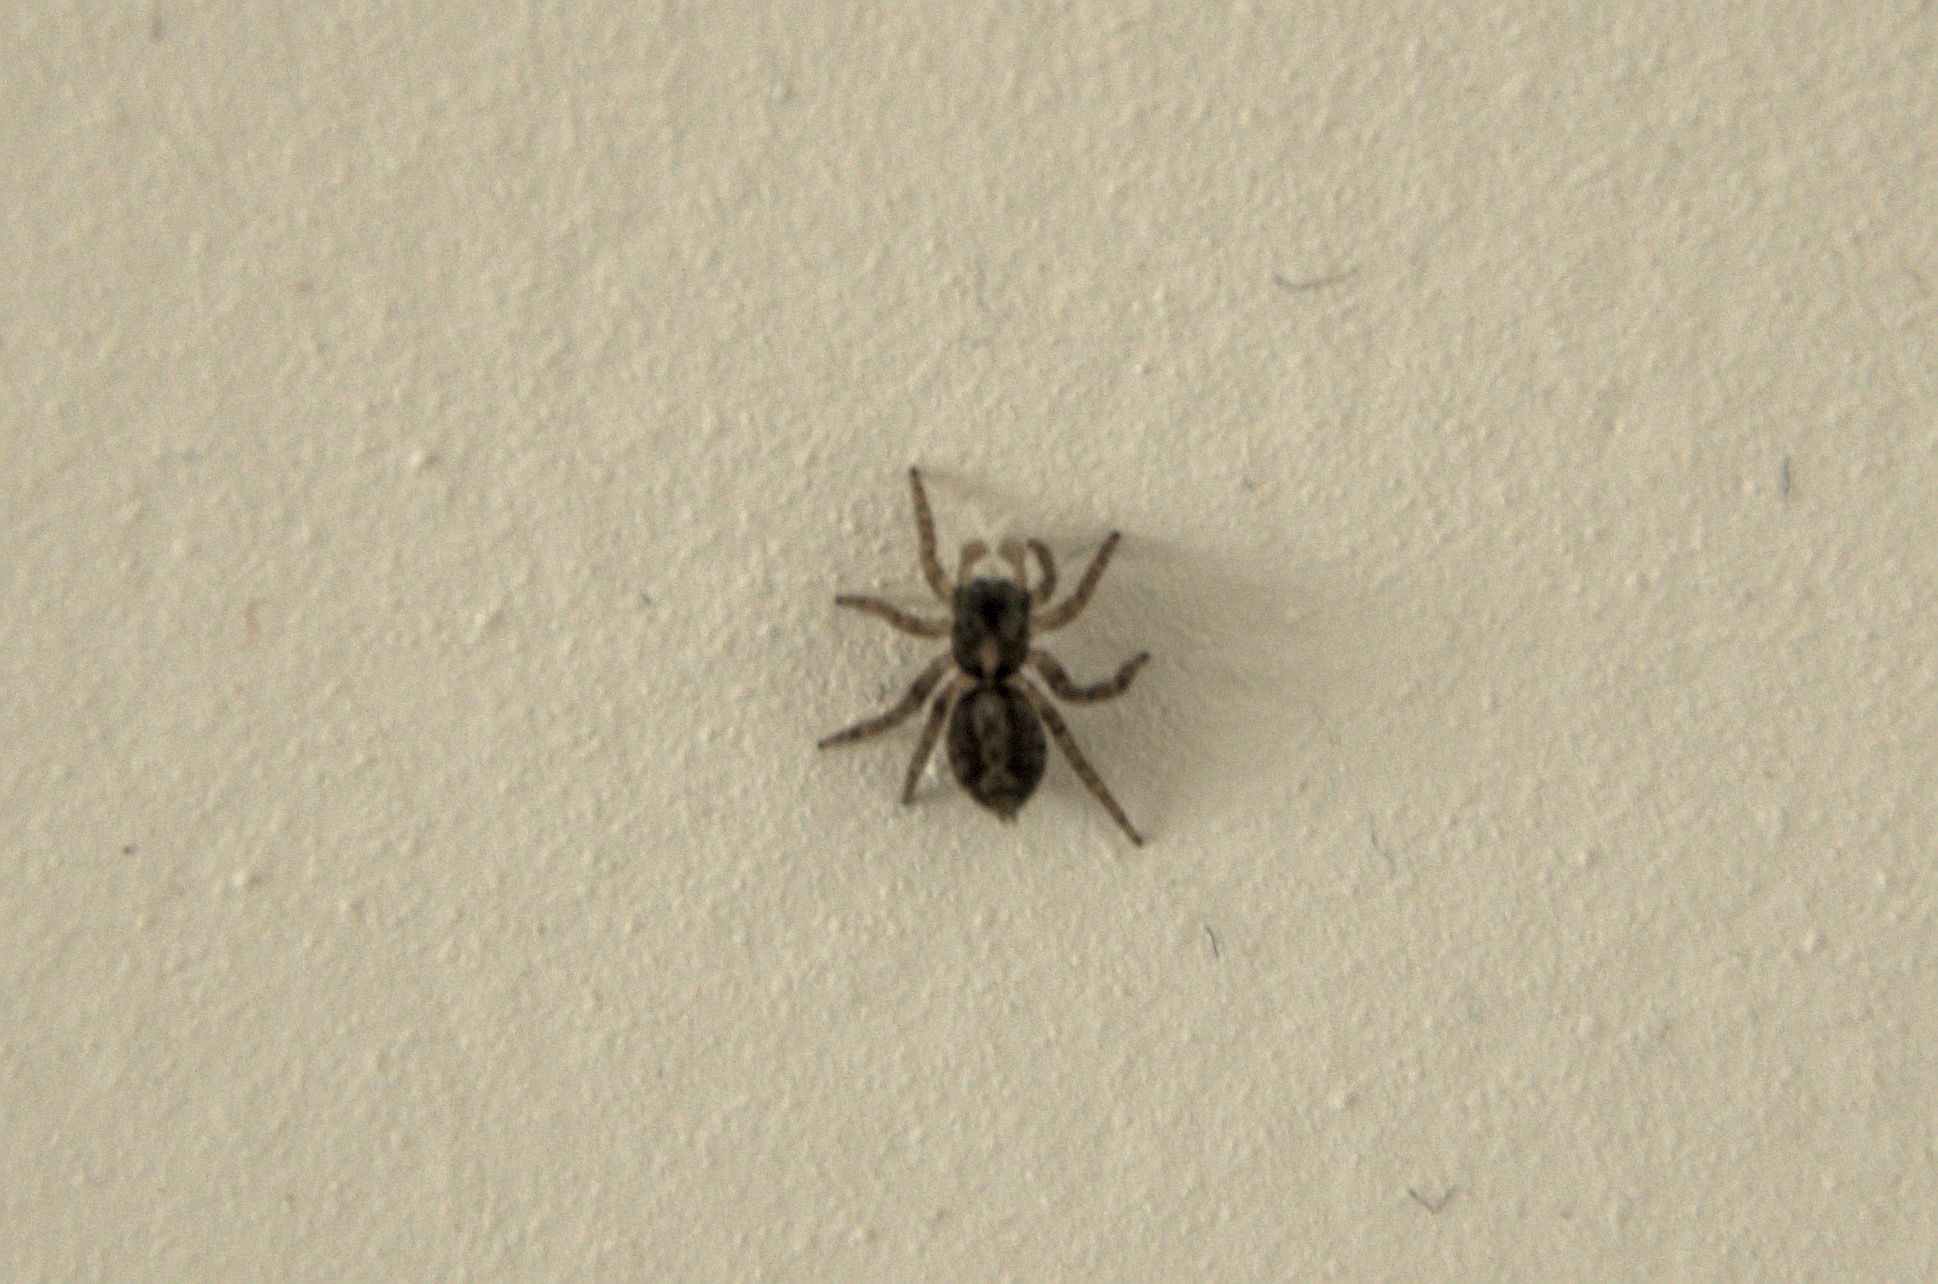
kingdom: Animalia
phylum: Arthropoda
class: Arachnida
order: Araneae
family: Salticidae
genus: Saitis
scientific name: Saitis barbipes
